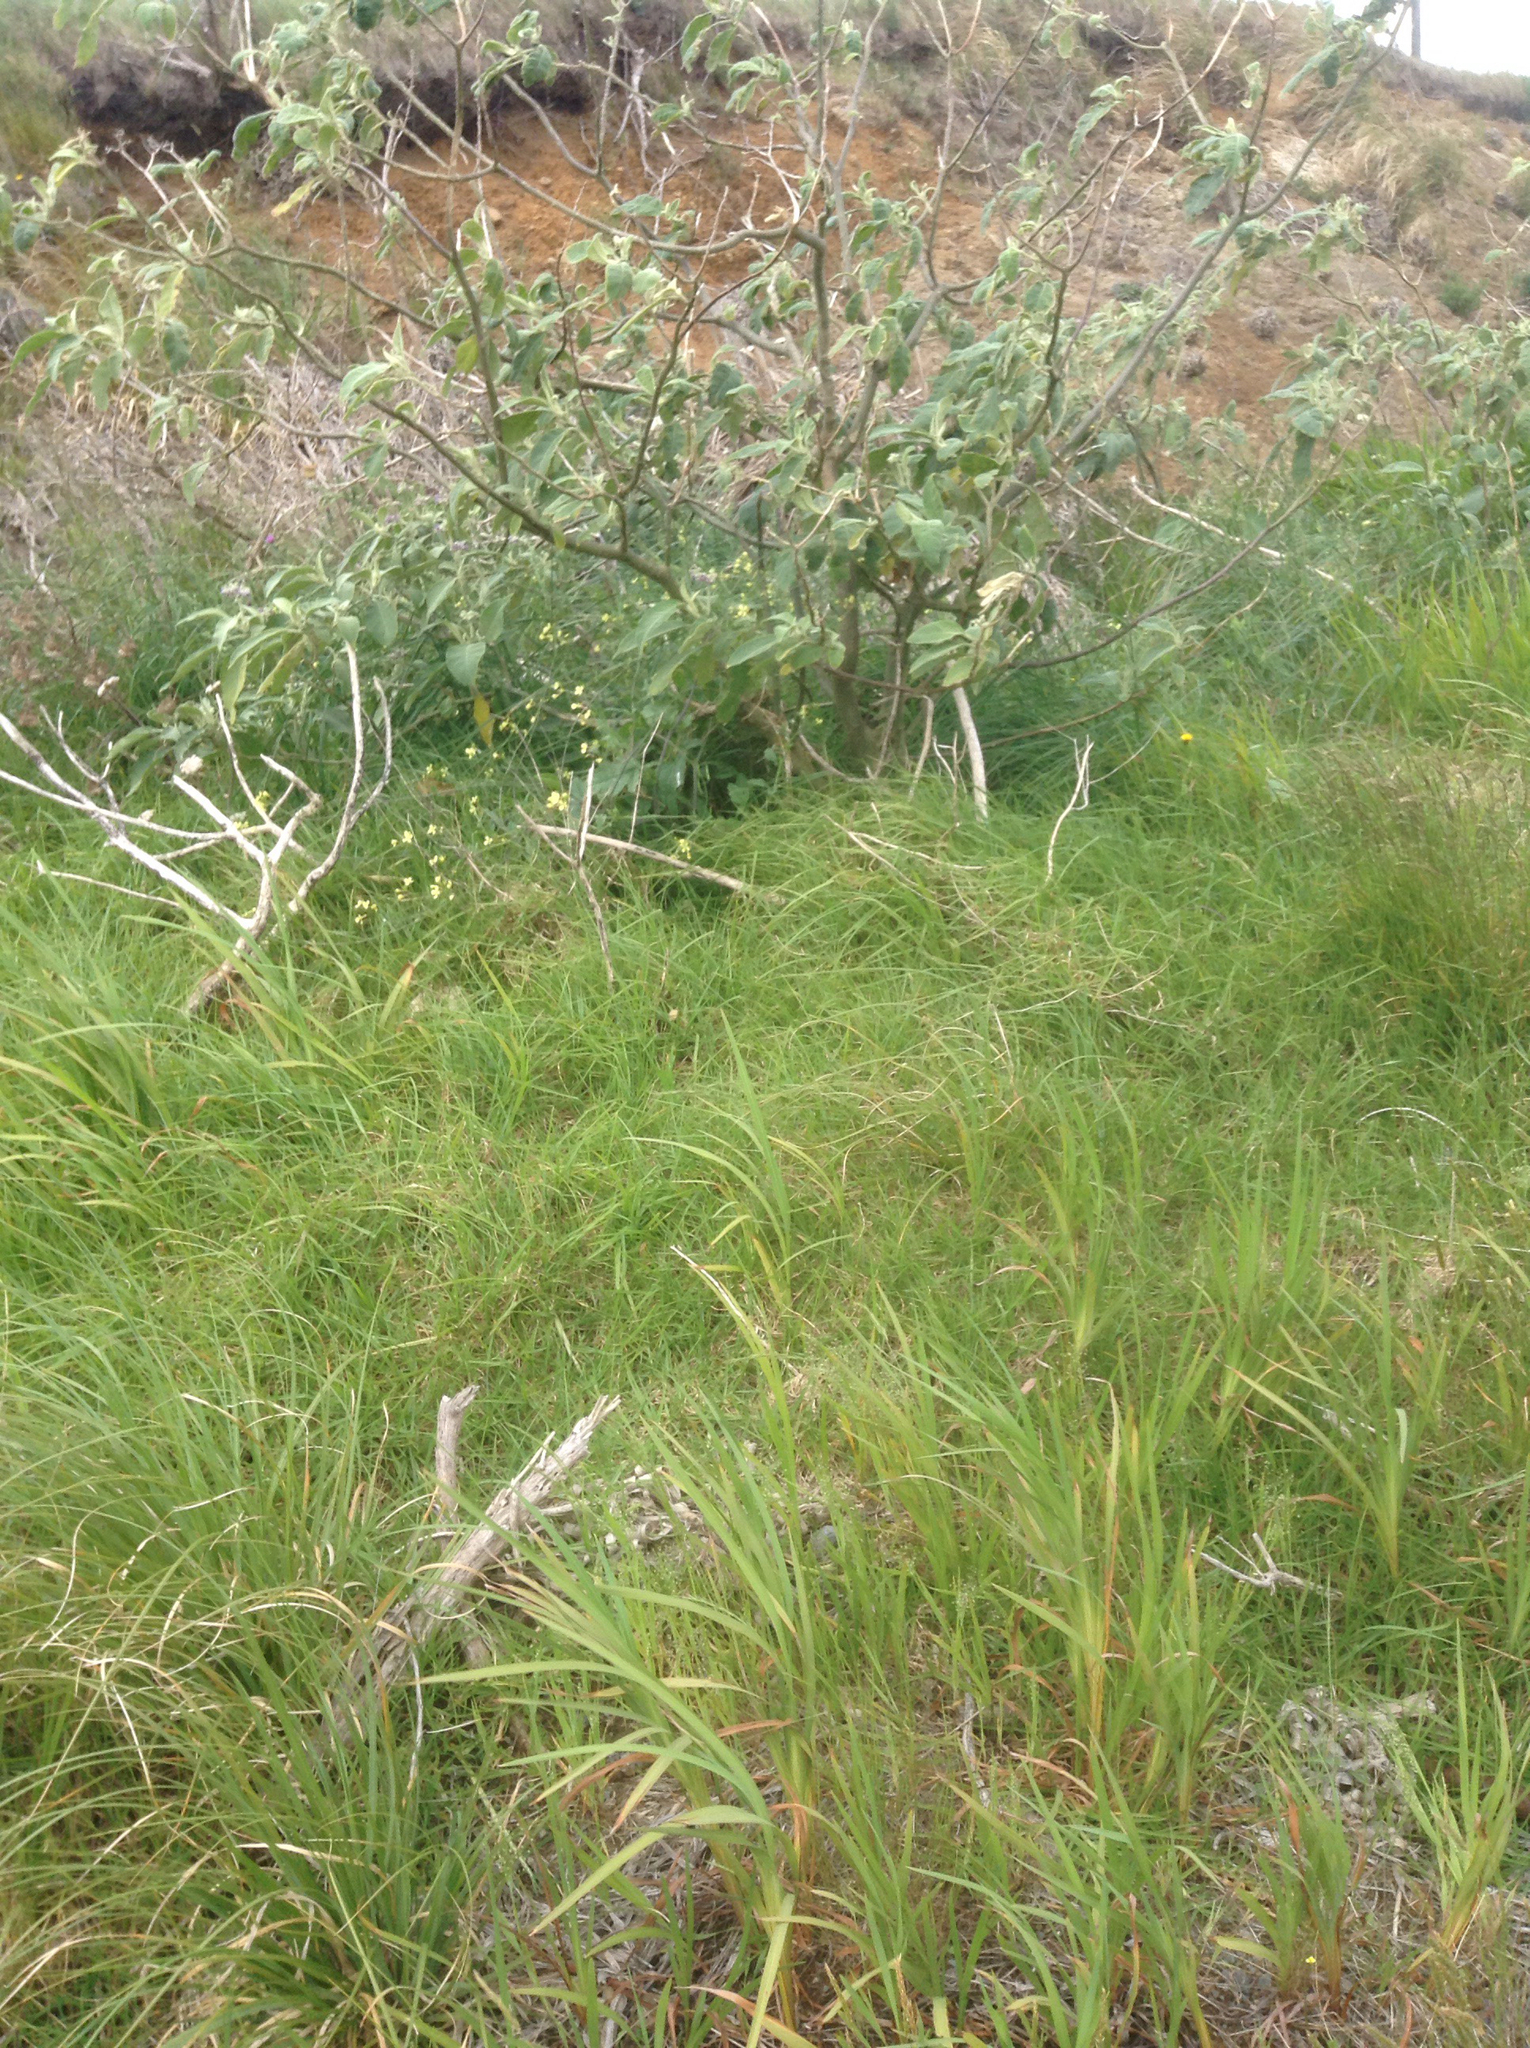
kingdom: Plantae
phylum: Tracheophyta
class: Magnoliopsida
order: Solanales
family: Solanaceae
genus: Solanum
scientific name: Solanum mauritianum
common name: Earleaf nightshade
